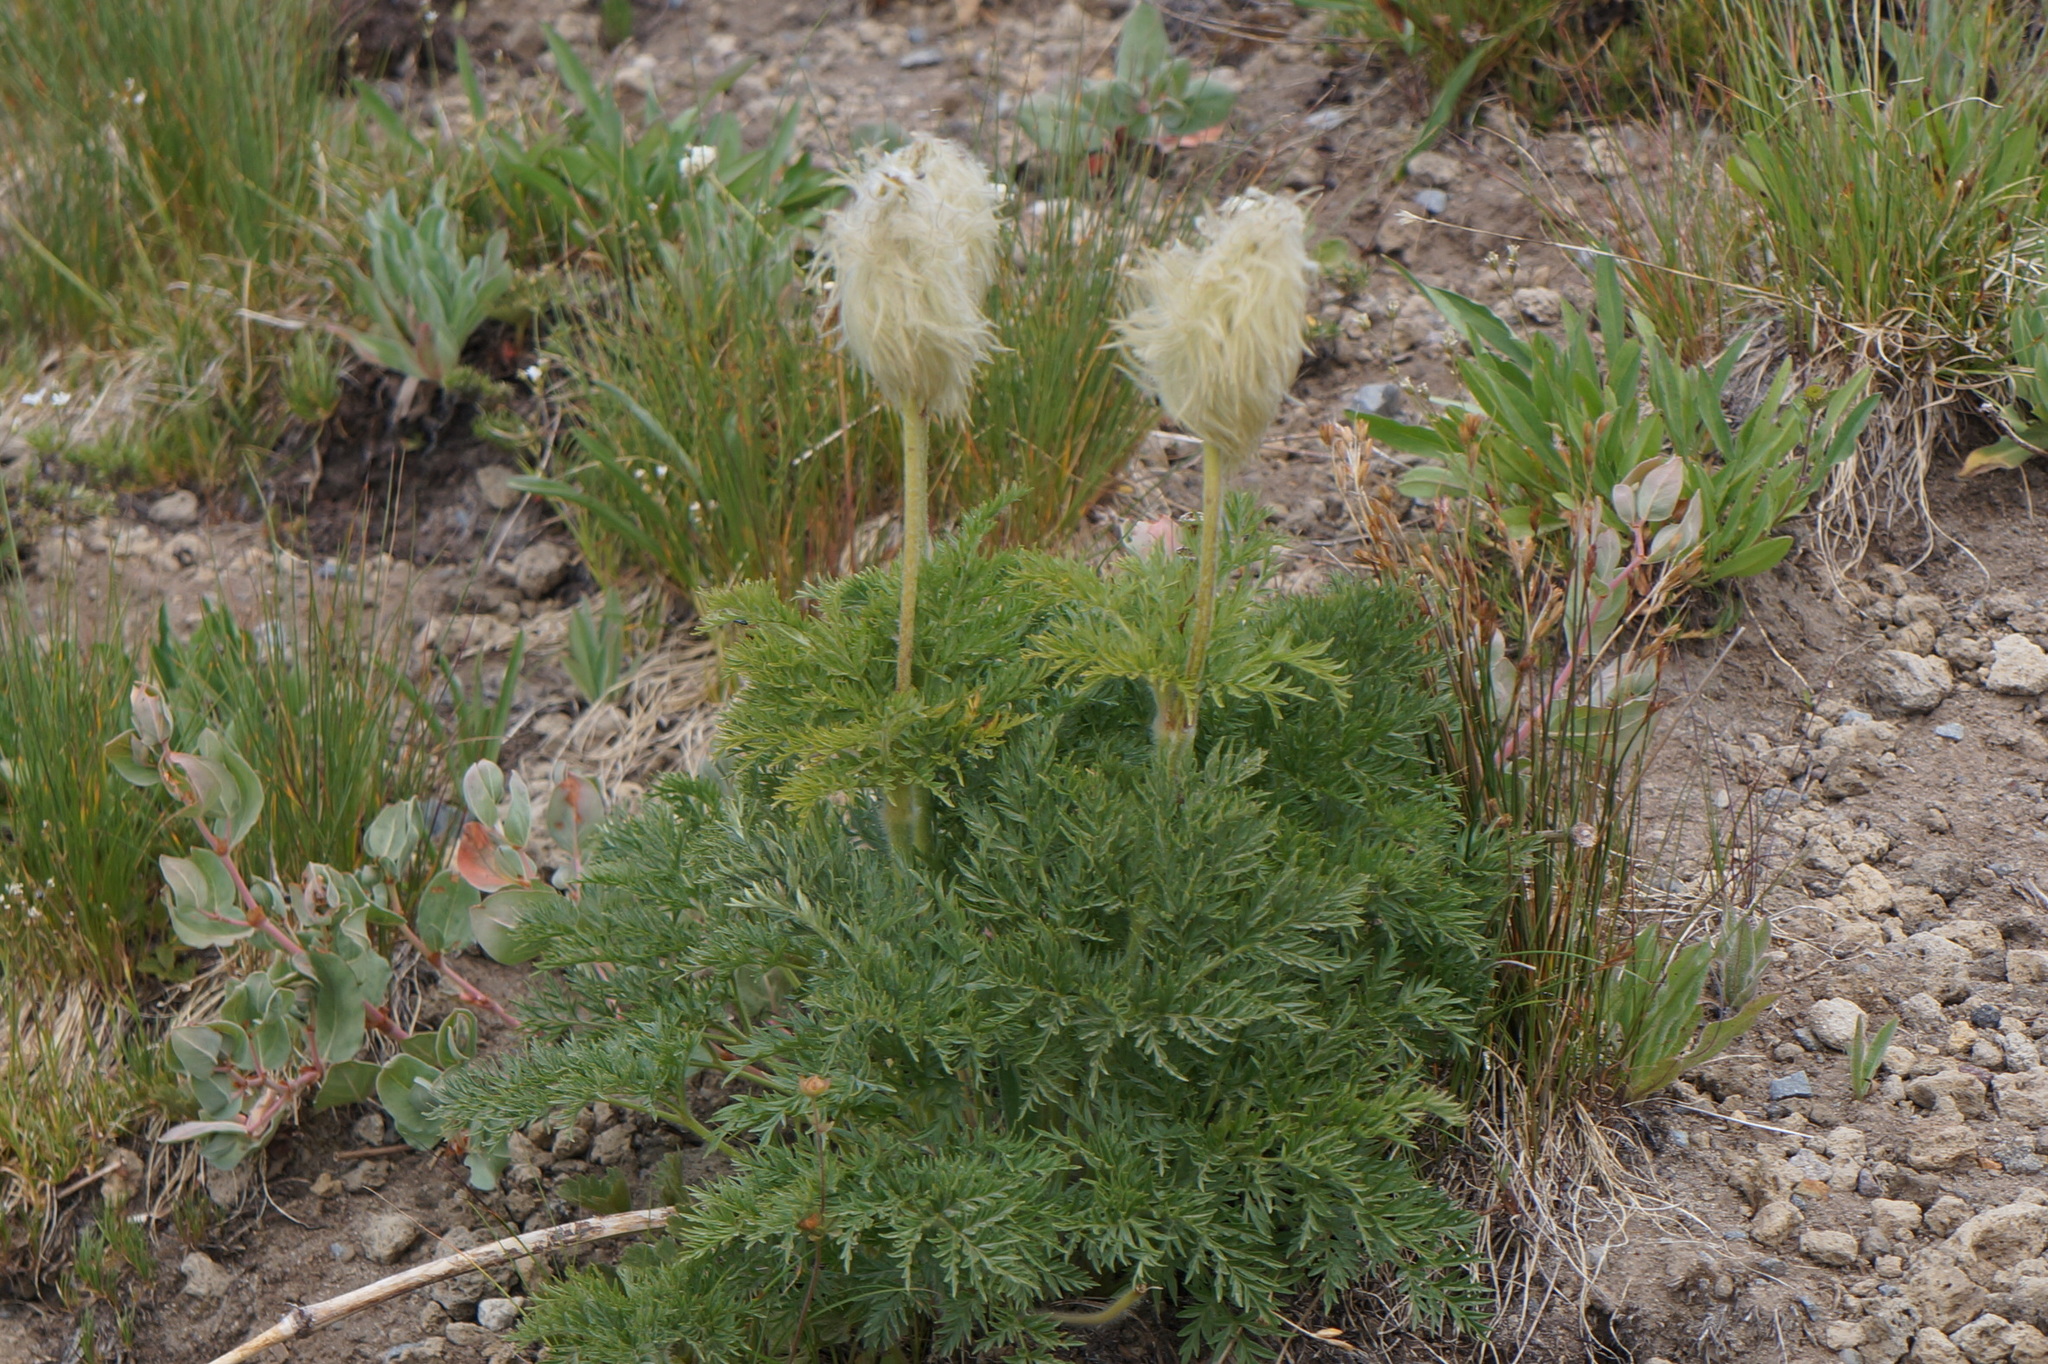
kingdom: Plantae
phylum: Tracheophyta
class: Magnoliopsida
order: Ranunculales
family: Ranunculaceae
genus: Pulsatilla
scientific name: Pulsatilla occidentalis
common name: Mountain pasqueflower
